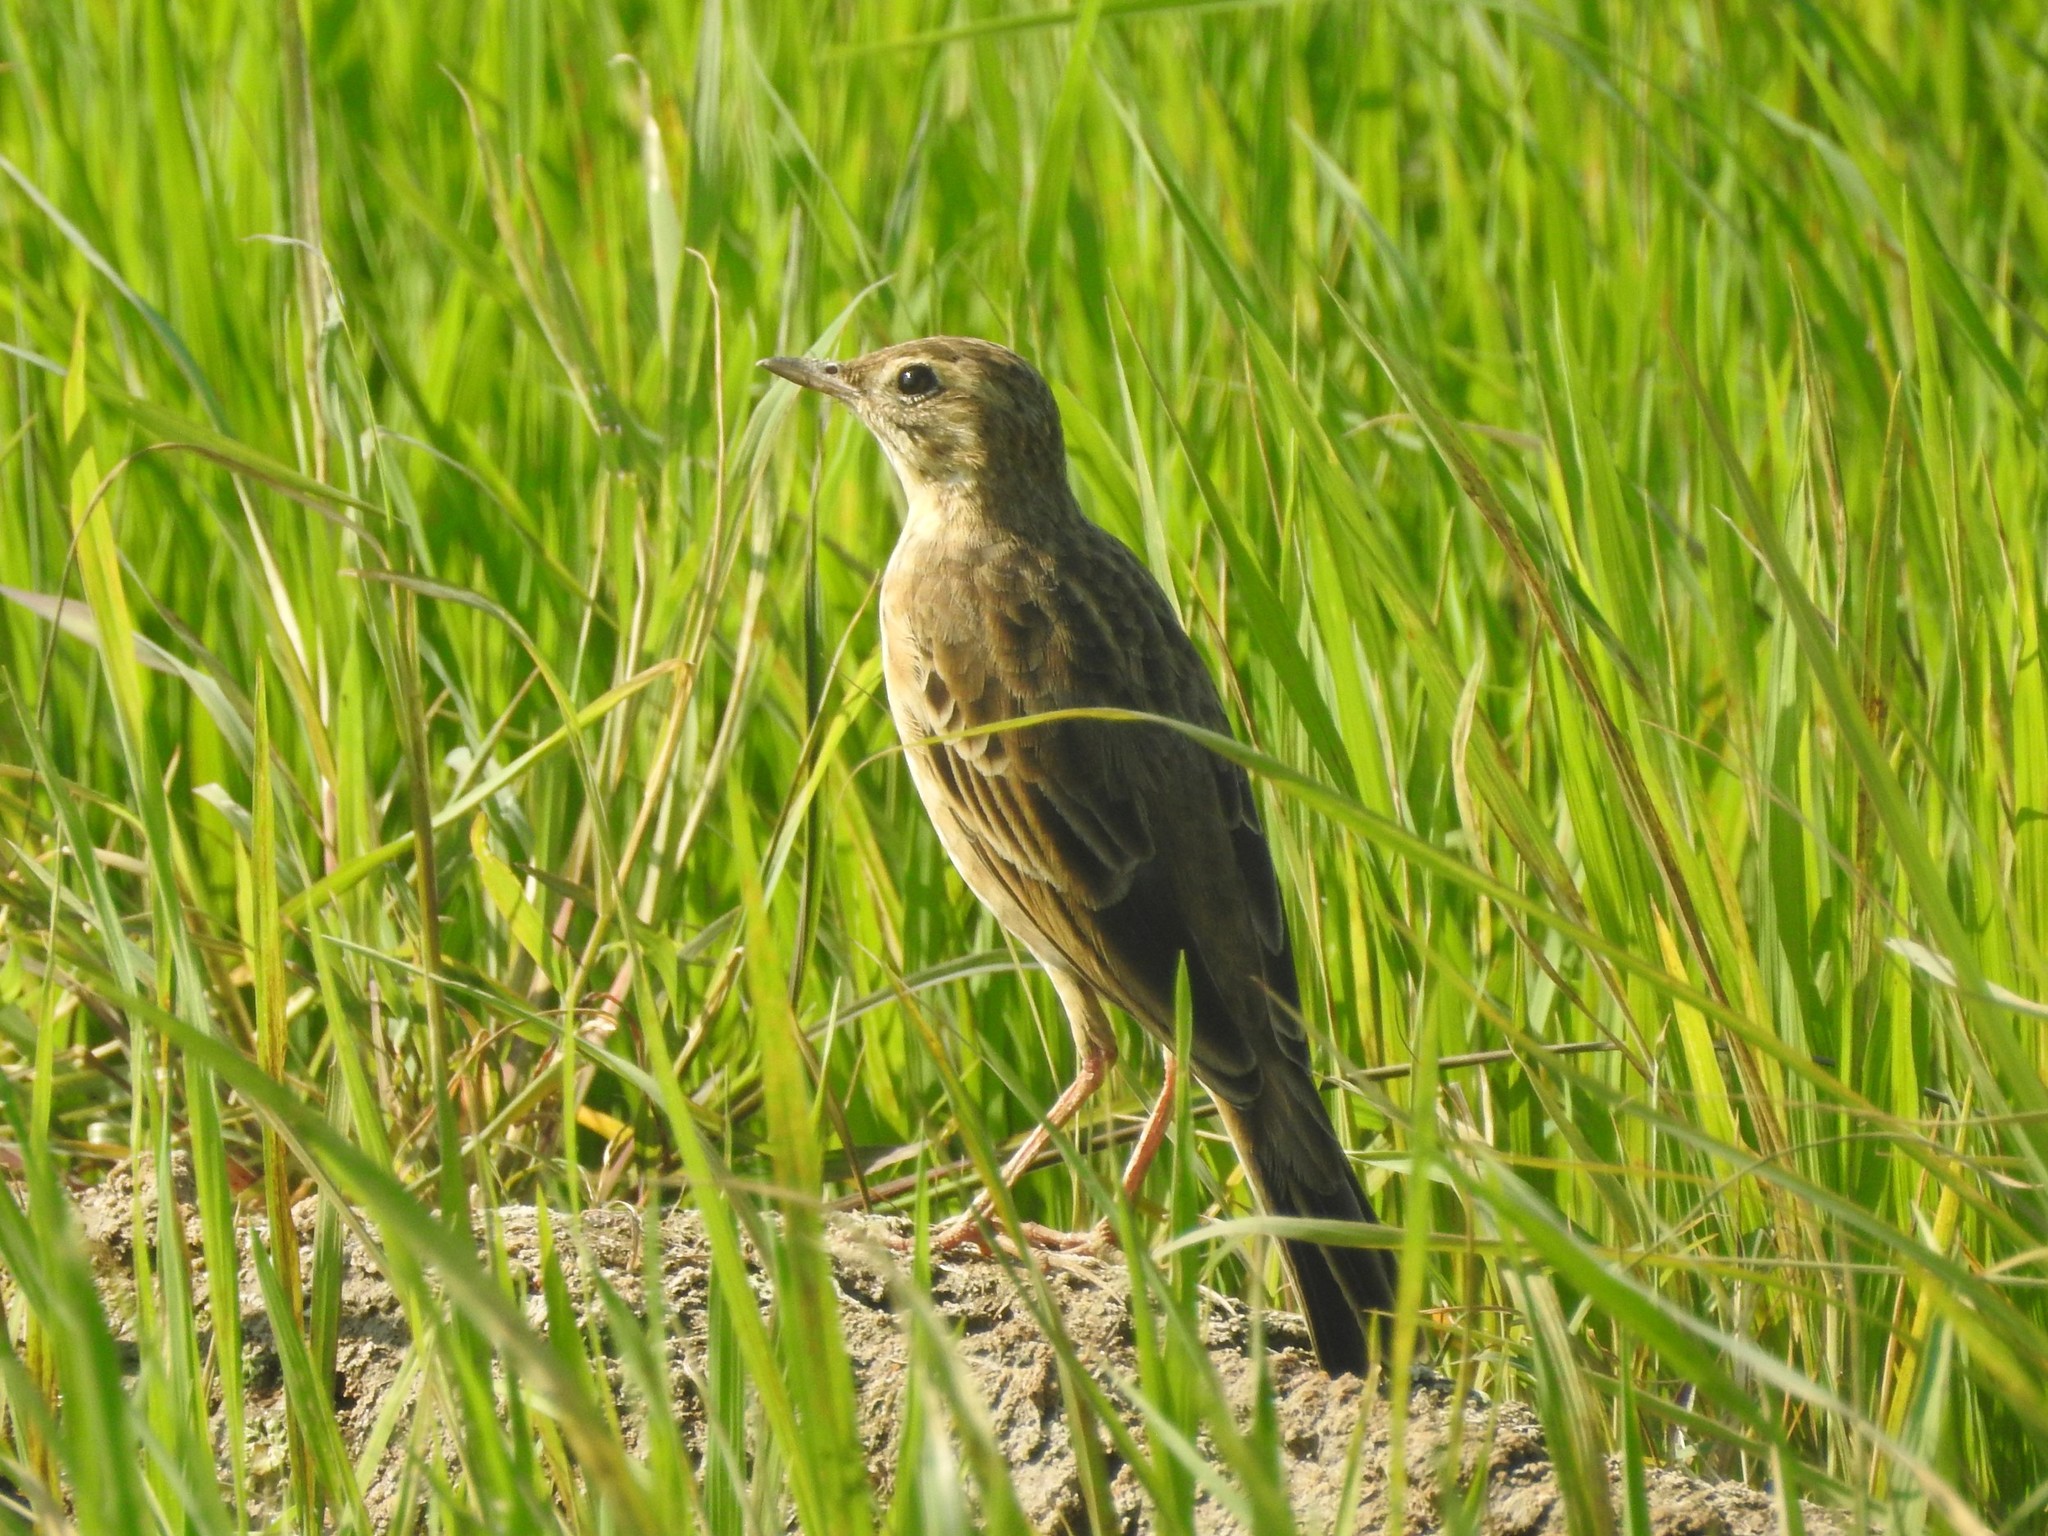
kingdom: Animalia
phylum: Chordata
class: Aves
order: Passeriformes
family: Motacillidae
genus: Anthus
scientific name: Anthus rufulus
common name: Paddyfield pipit
